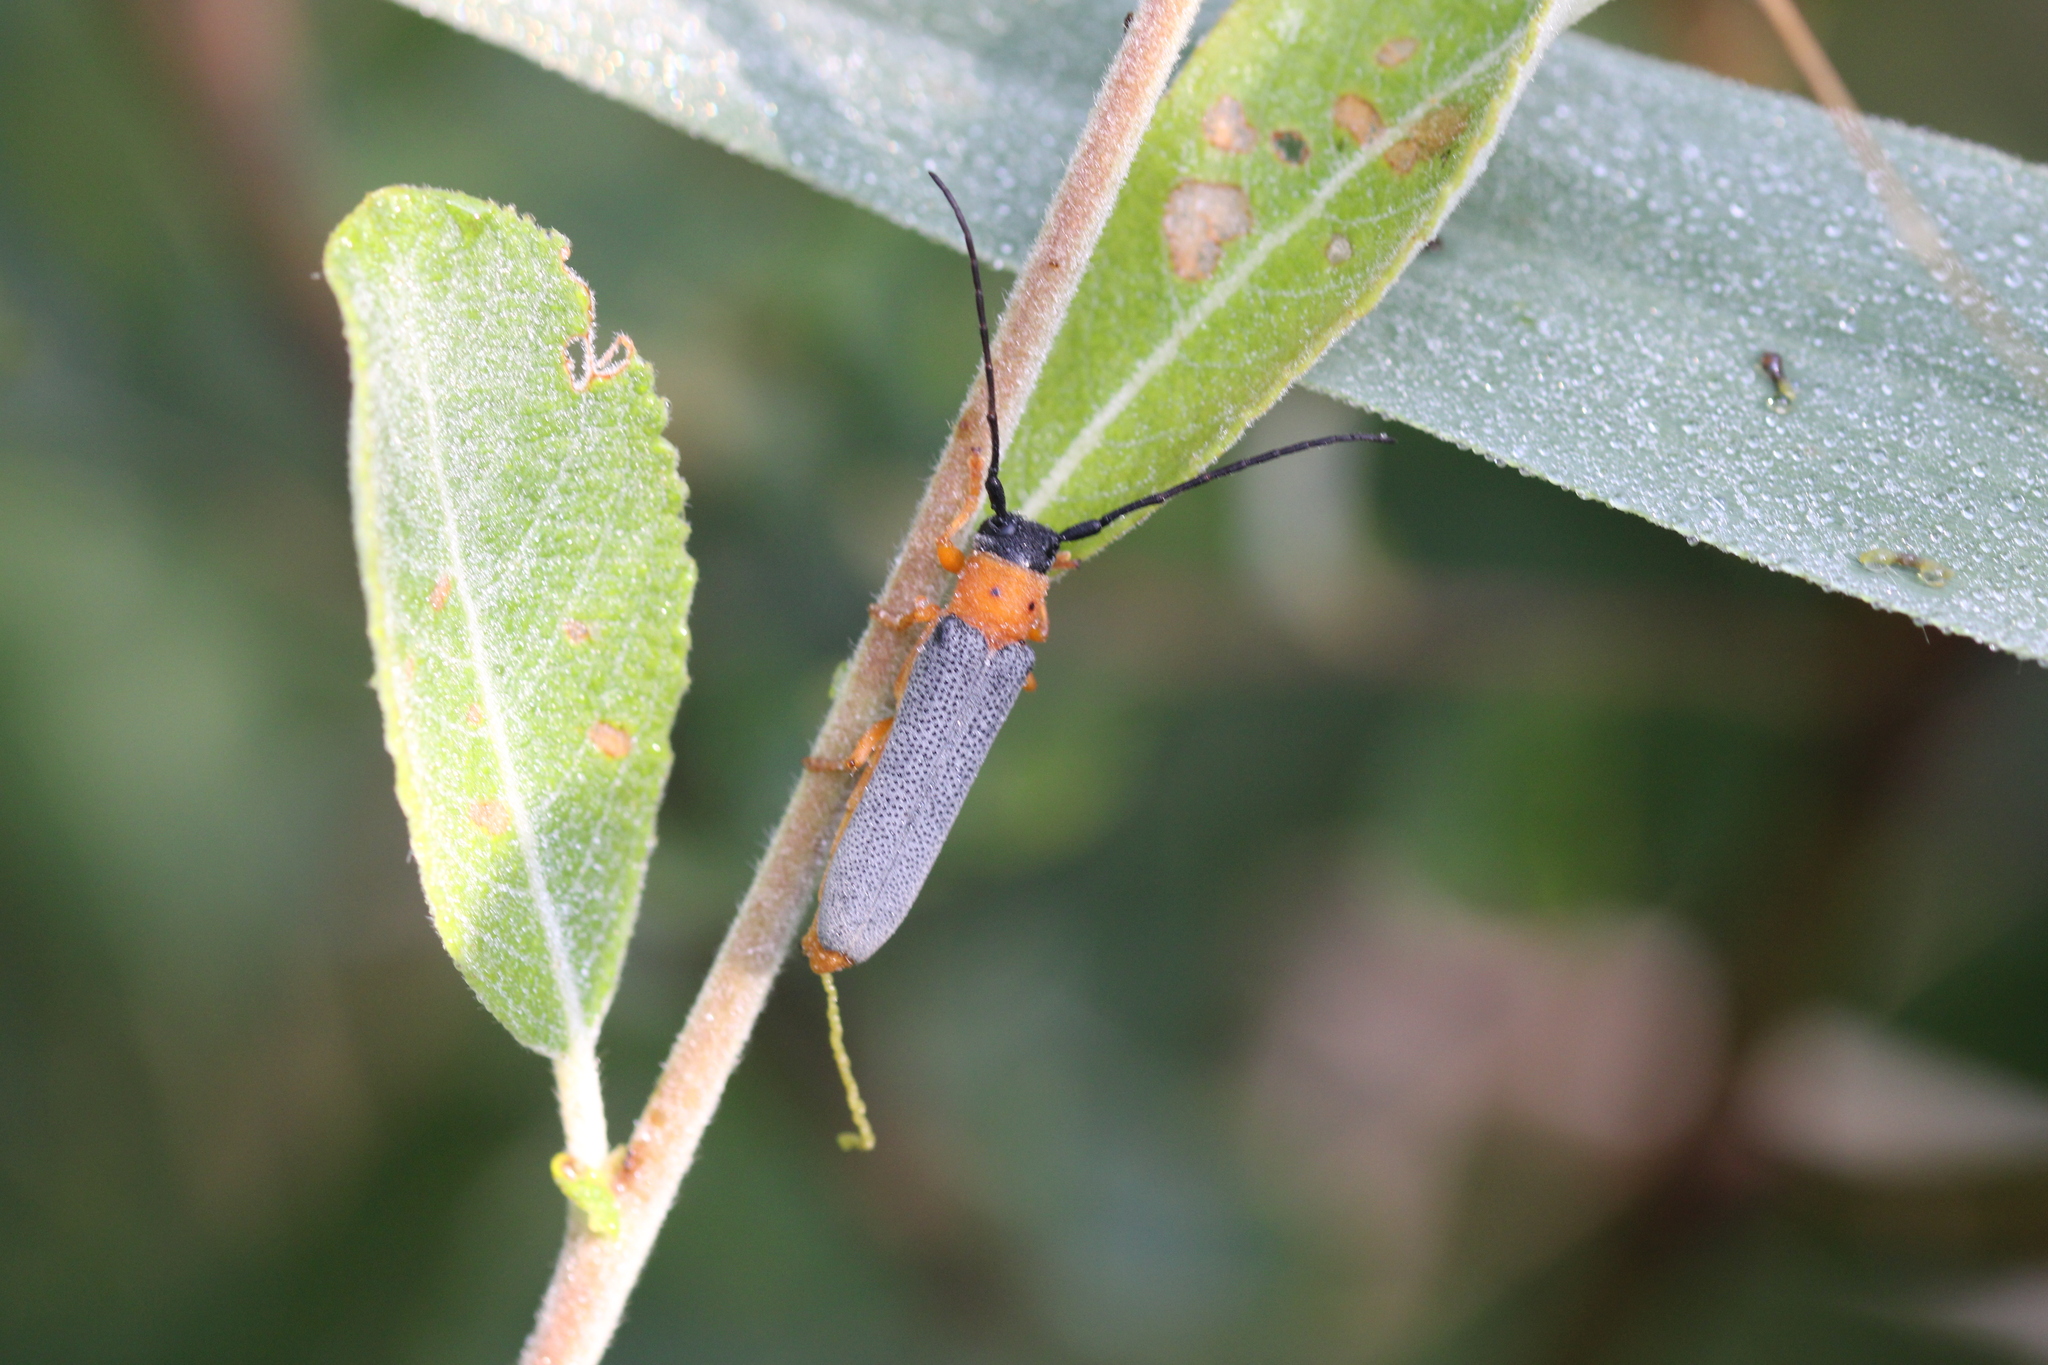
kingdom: Animalia
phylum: Arthropoda
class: Insecta
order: Coleoptera
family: Cerambycidae
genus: Oberea
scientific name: Oberea oculata
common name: Eyed longhorn beetle
